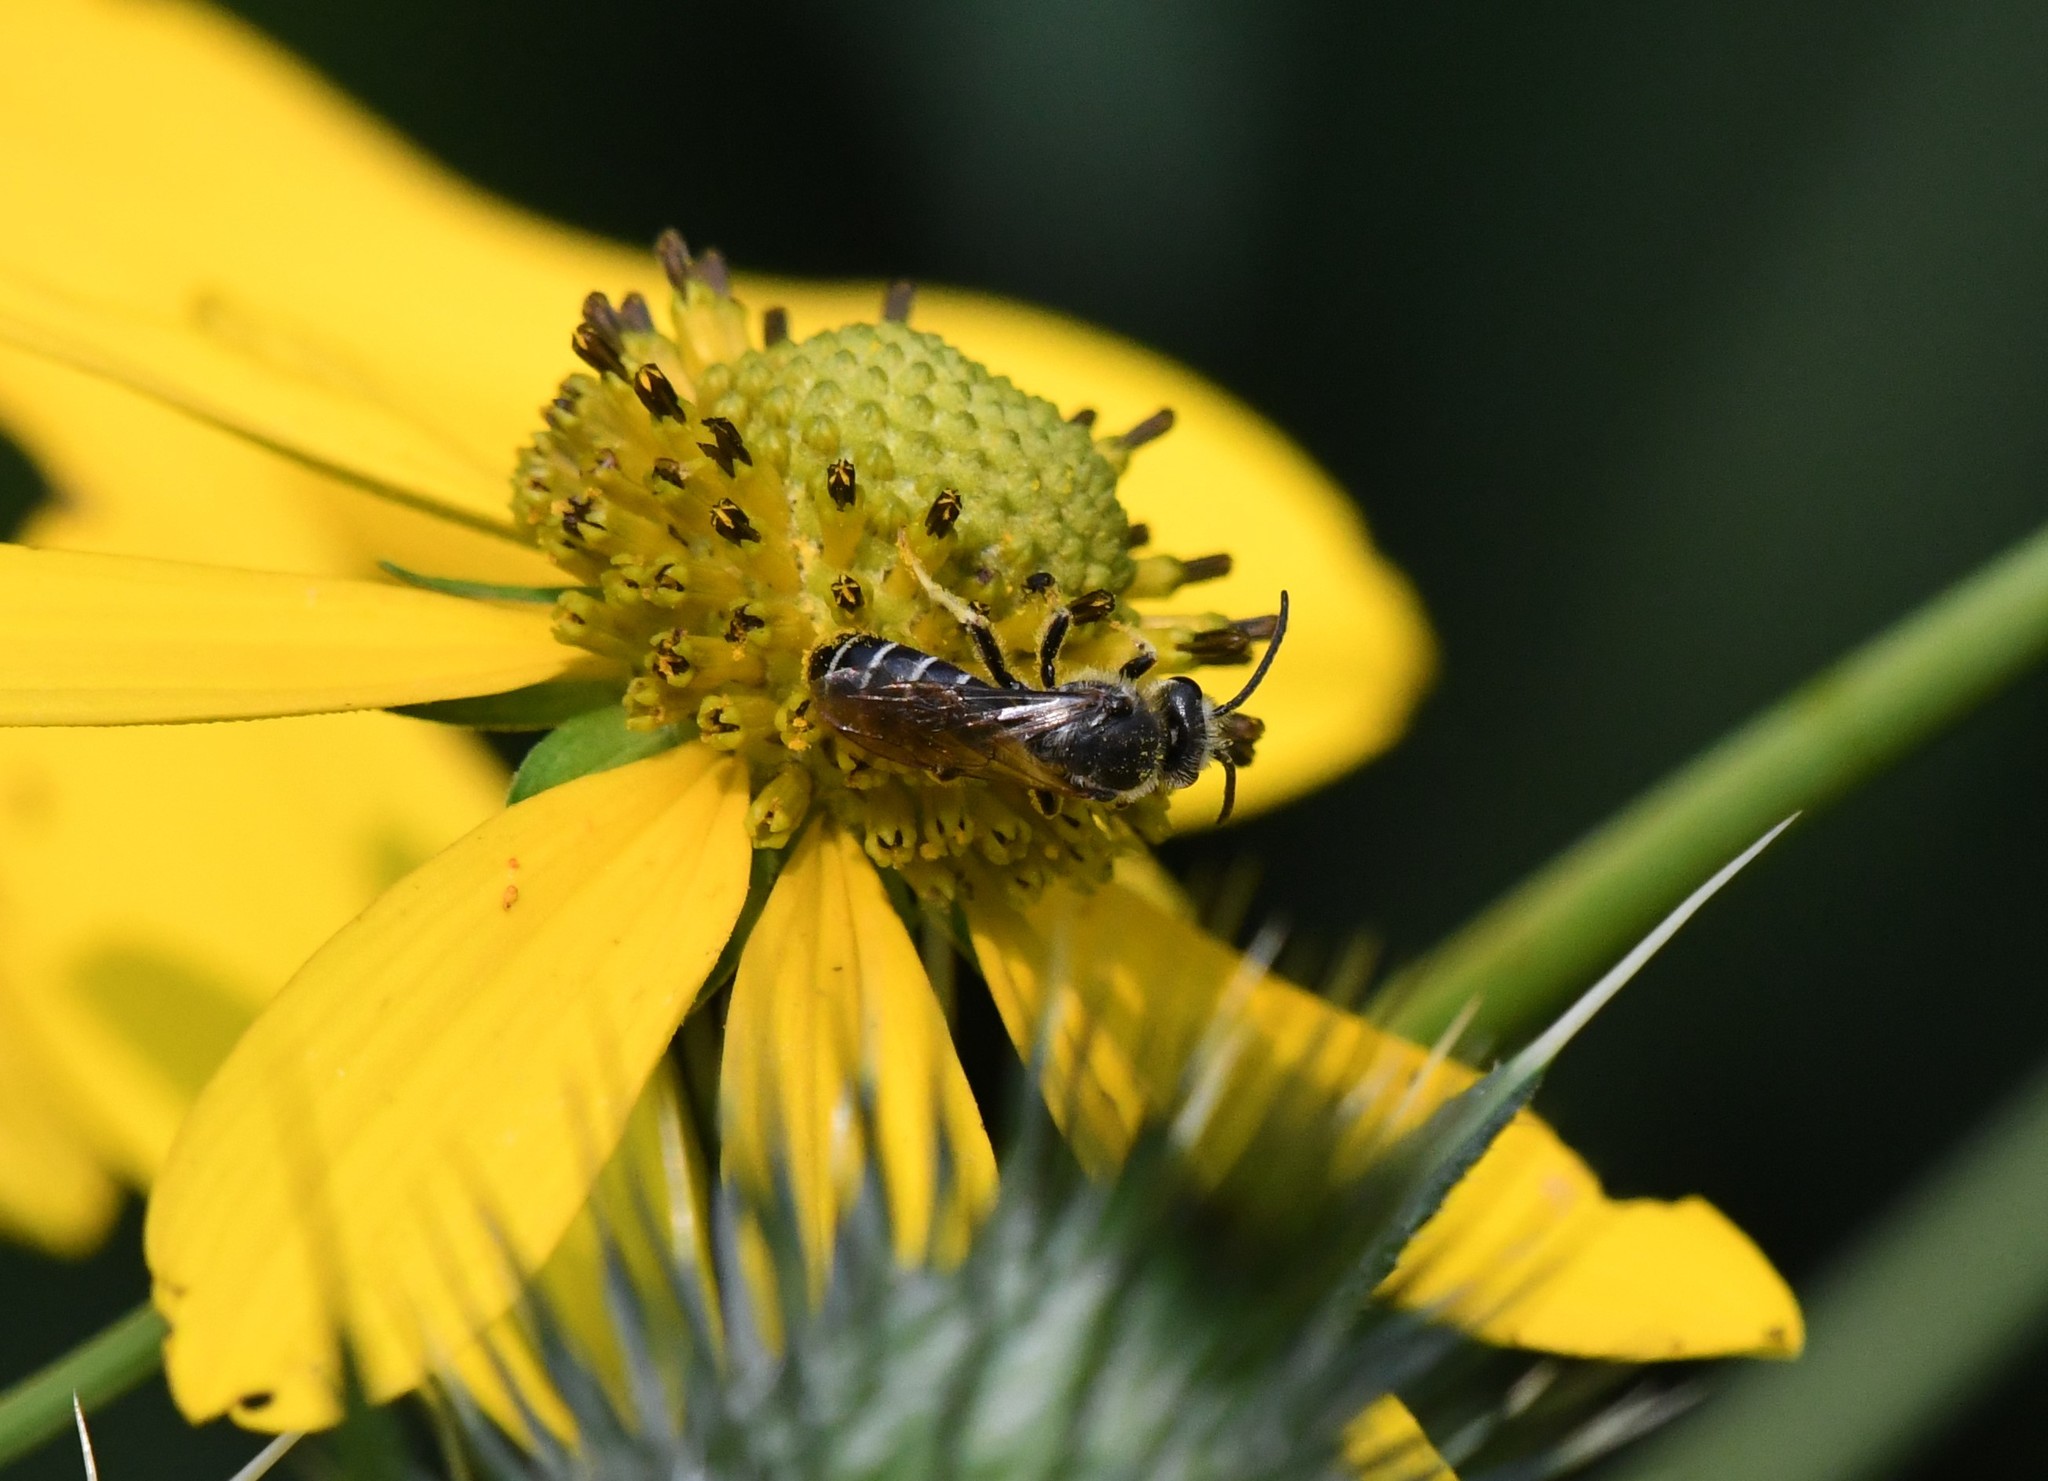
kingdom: Animalia
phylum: Arthropoda
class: Insecta
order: Hymenoptera
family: Halictidae
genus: Halictus
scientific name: Halictus rubicundus
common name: Orange-legged furrow bee
